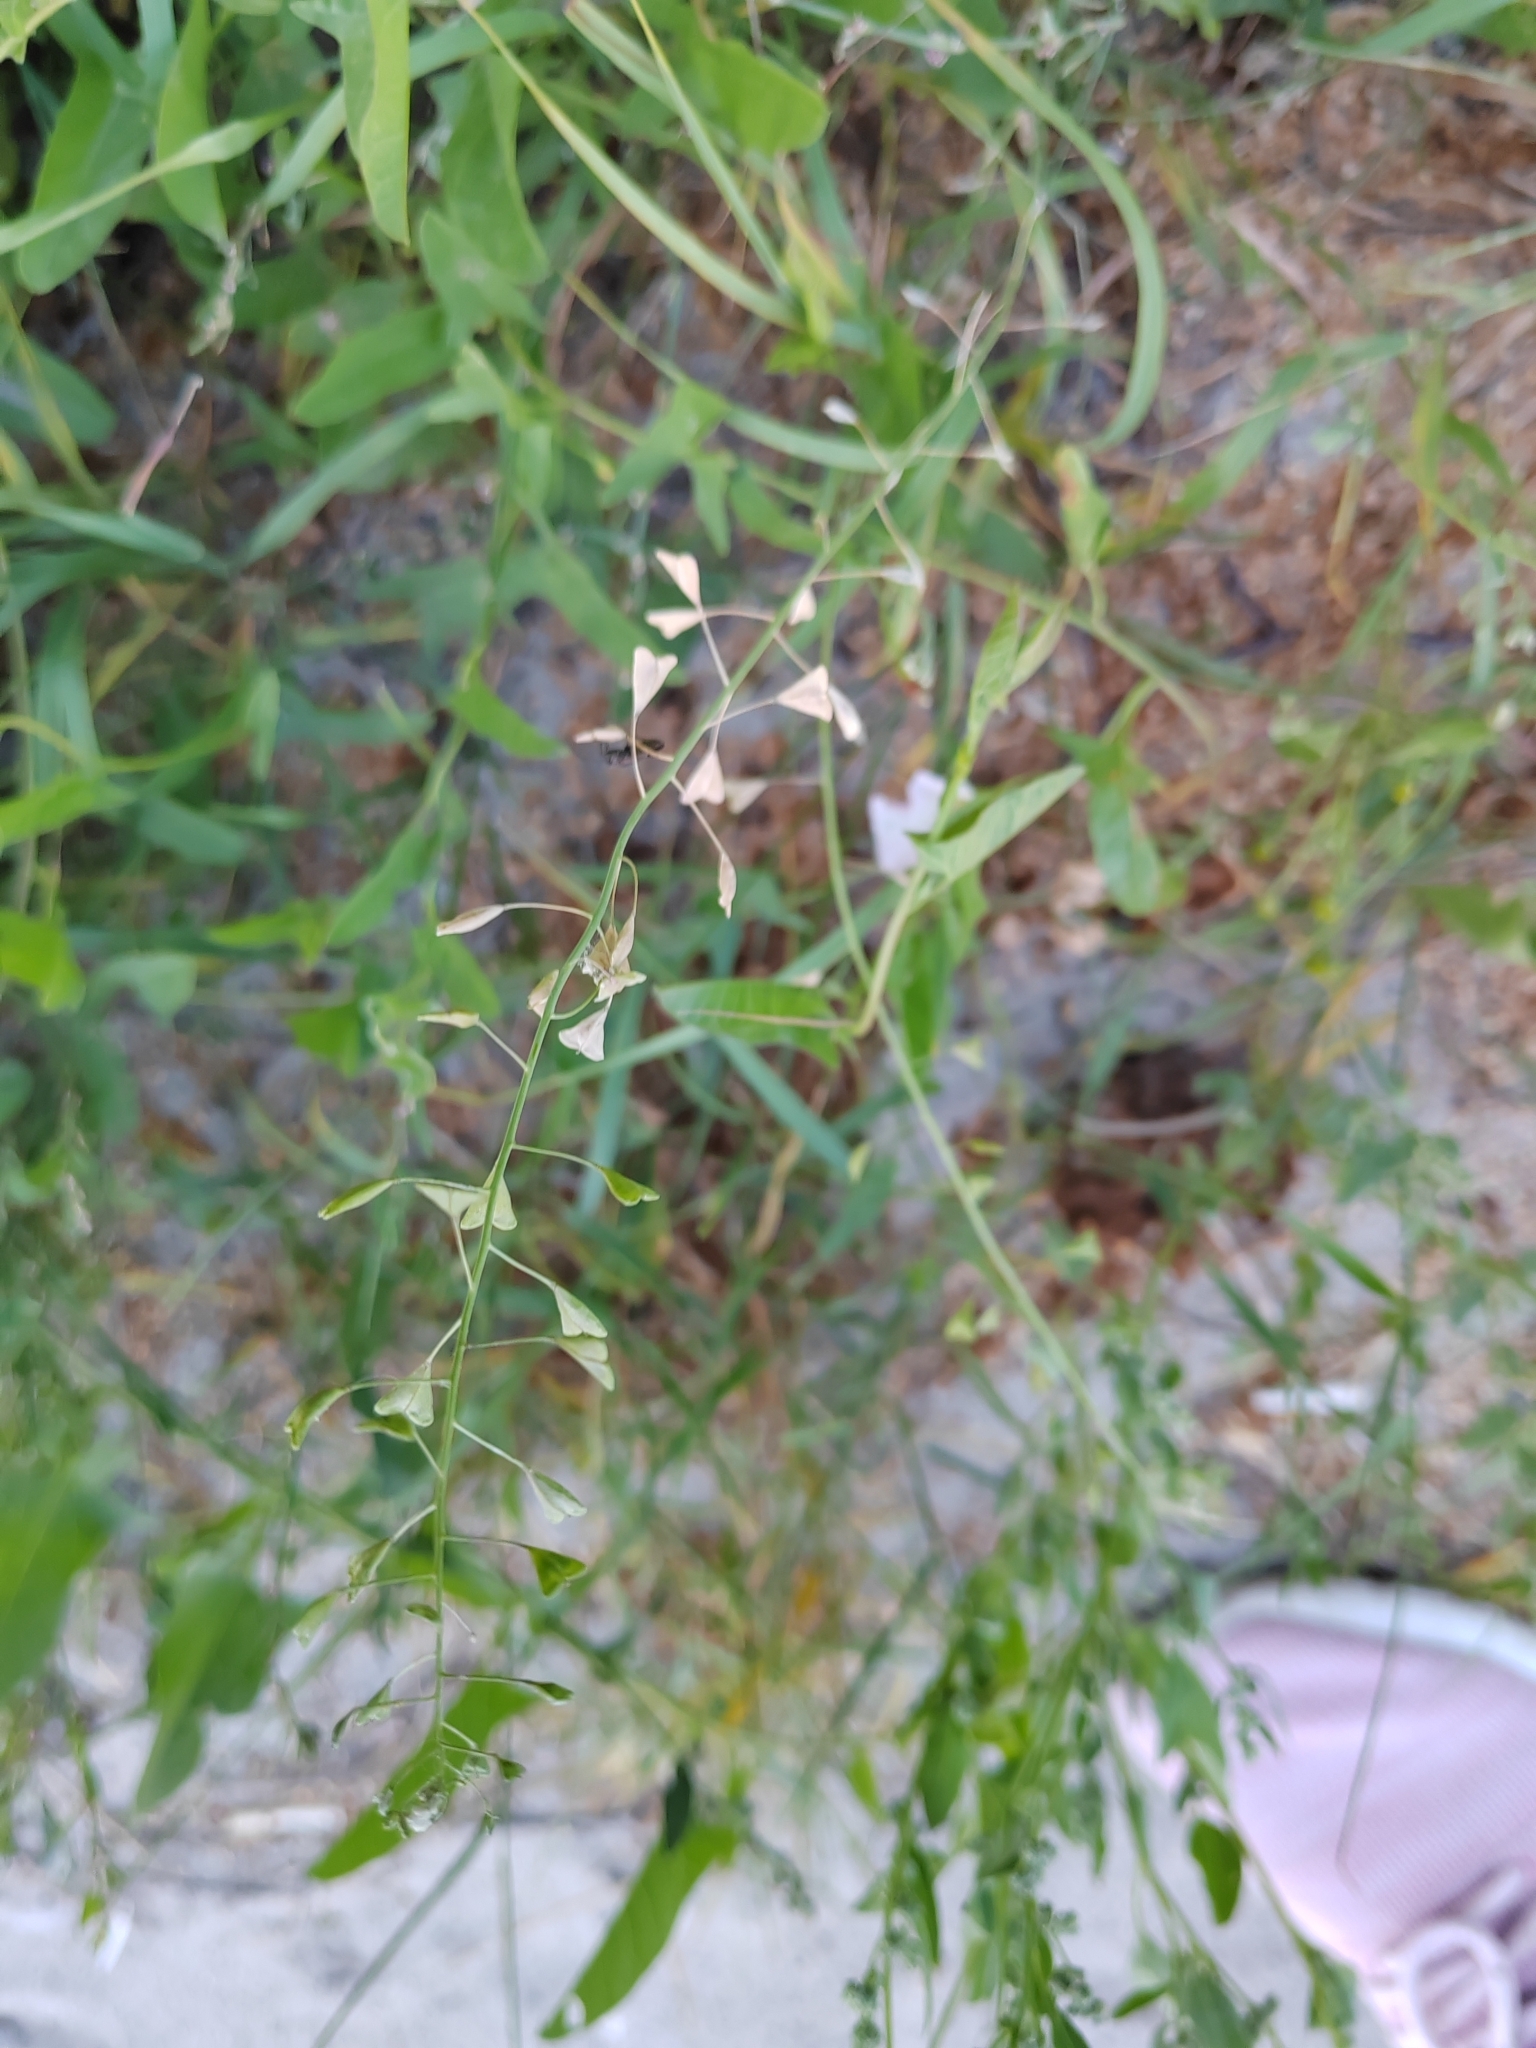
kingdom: Plantae
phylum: Tracheophyta
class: Magnoliopsida
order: Brassicales
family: Brassicaceae
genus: Capsella
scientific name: Capsella bursa-pastoris
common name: Shepherd's purse
